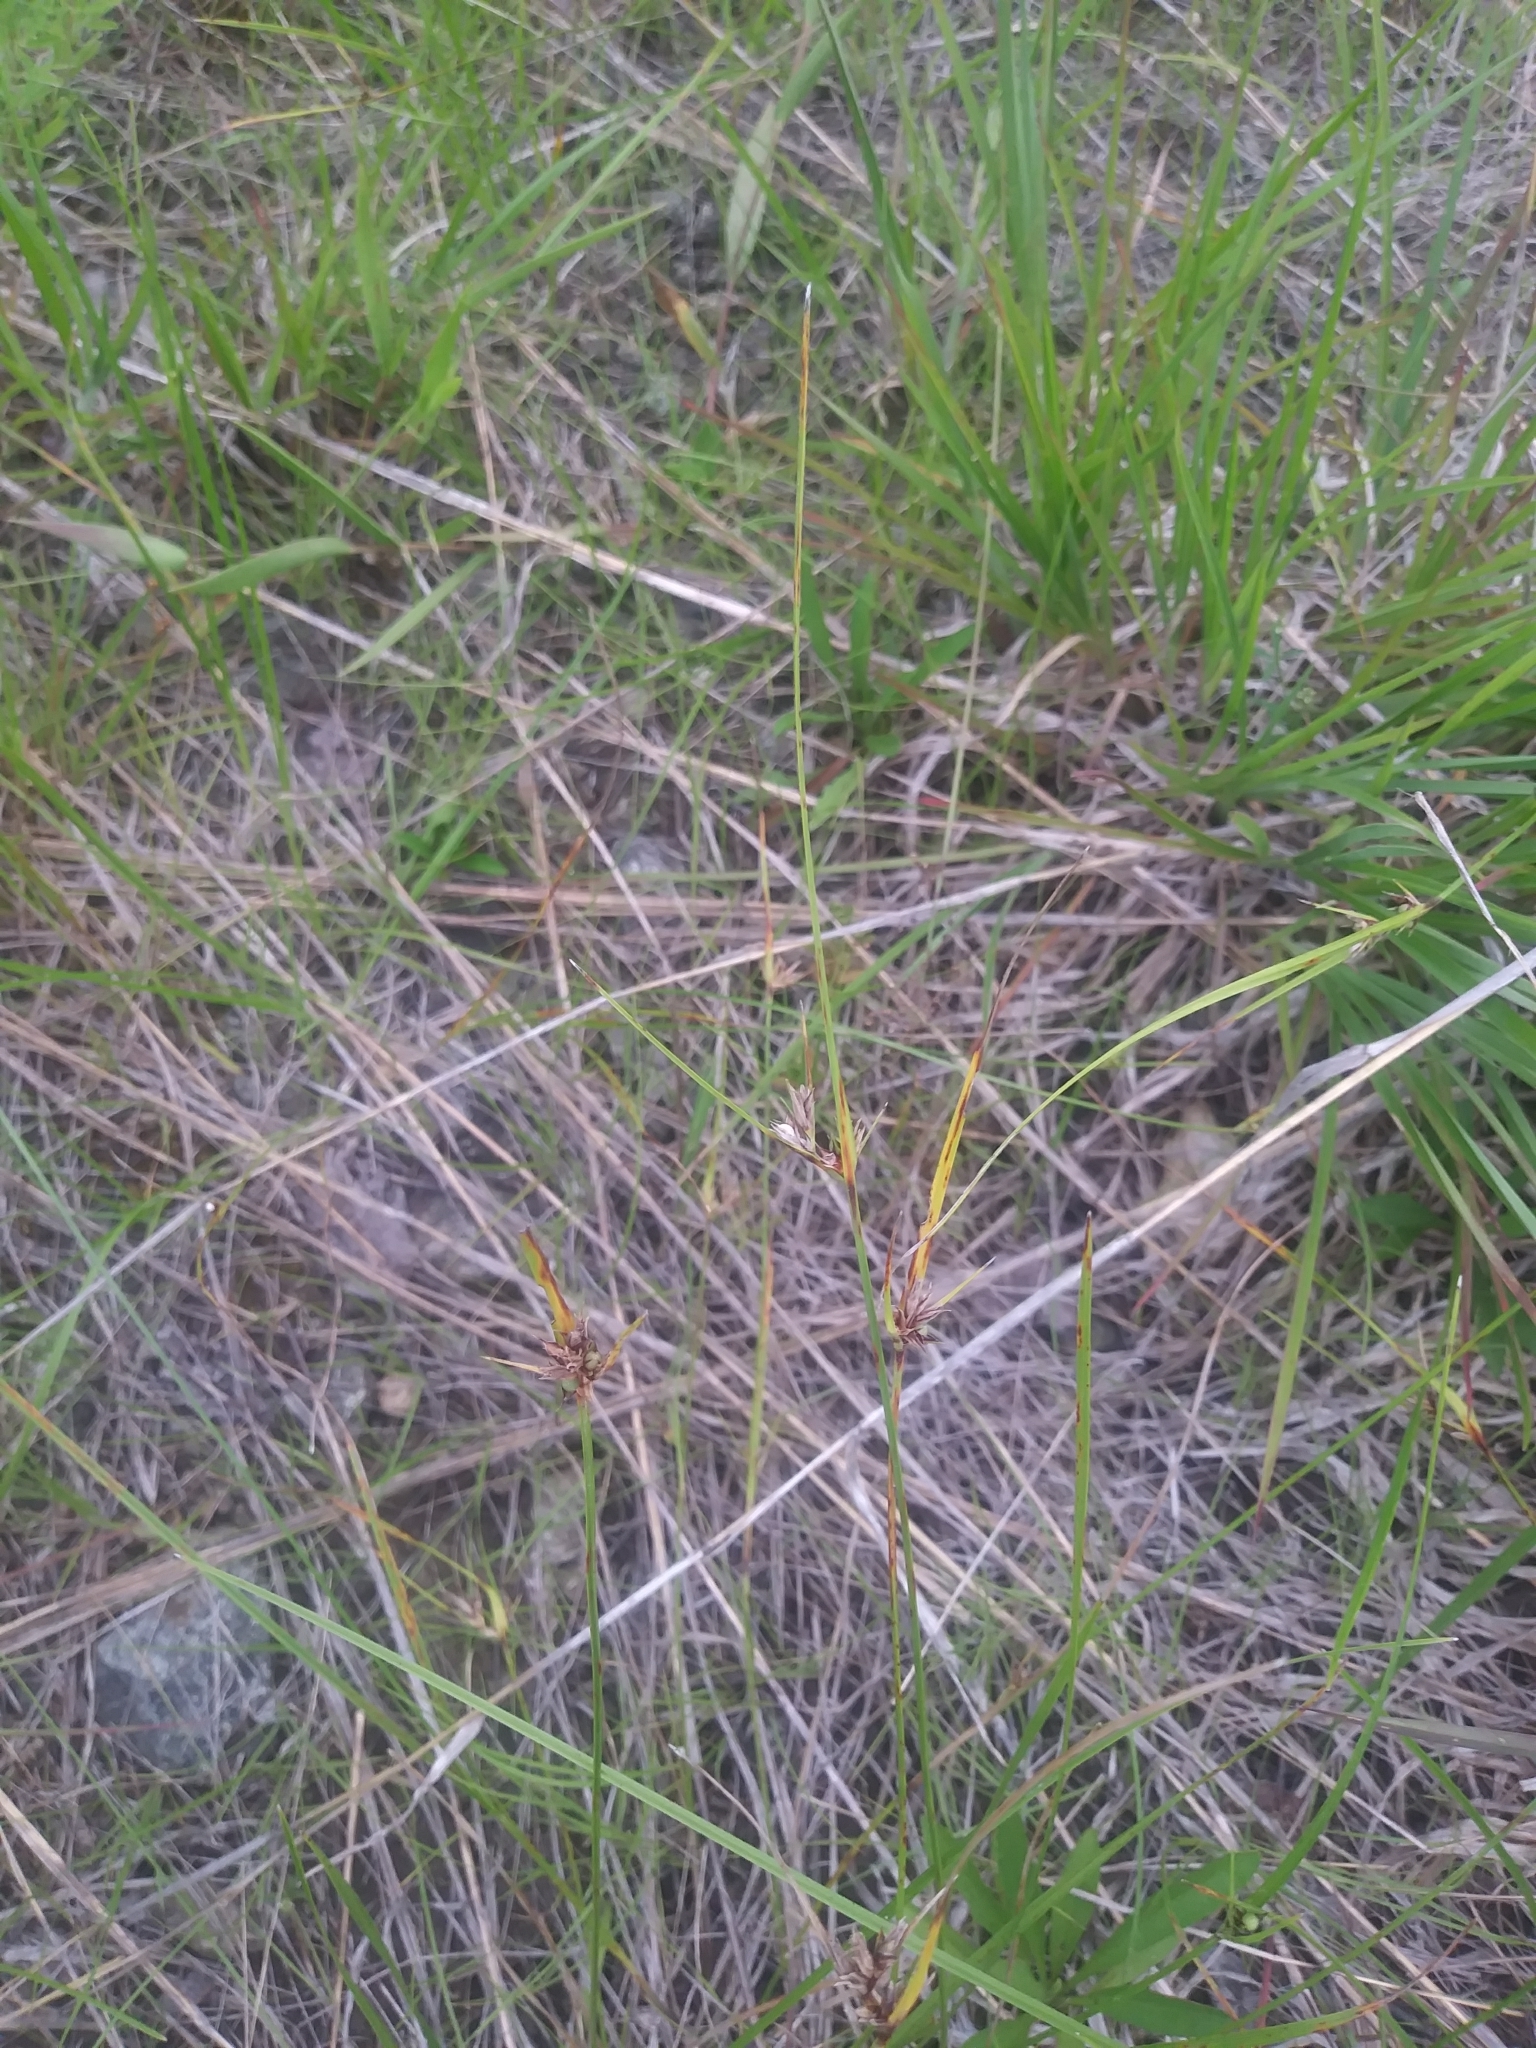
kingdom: Plantae
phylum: Tracheophyta
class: Liliopsida
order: Poales
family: Cyperaceae
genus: Scleria
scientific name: Scleria pauciflora
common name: Few-flowered nutrush
